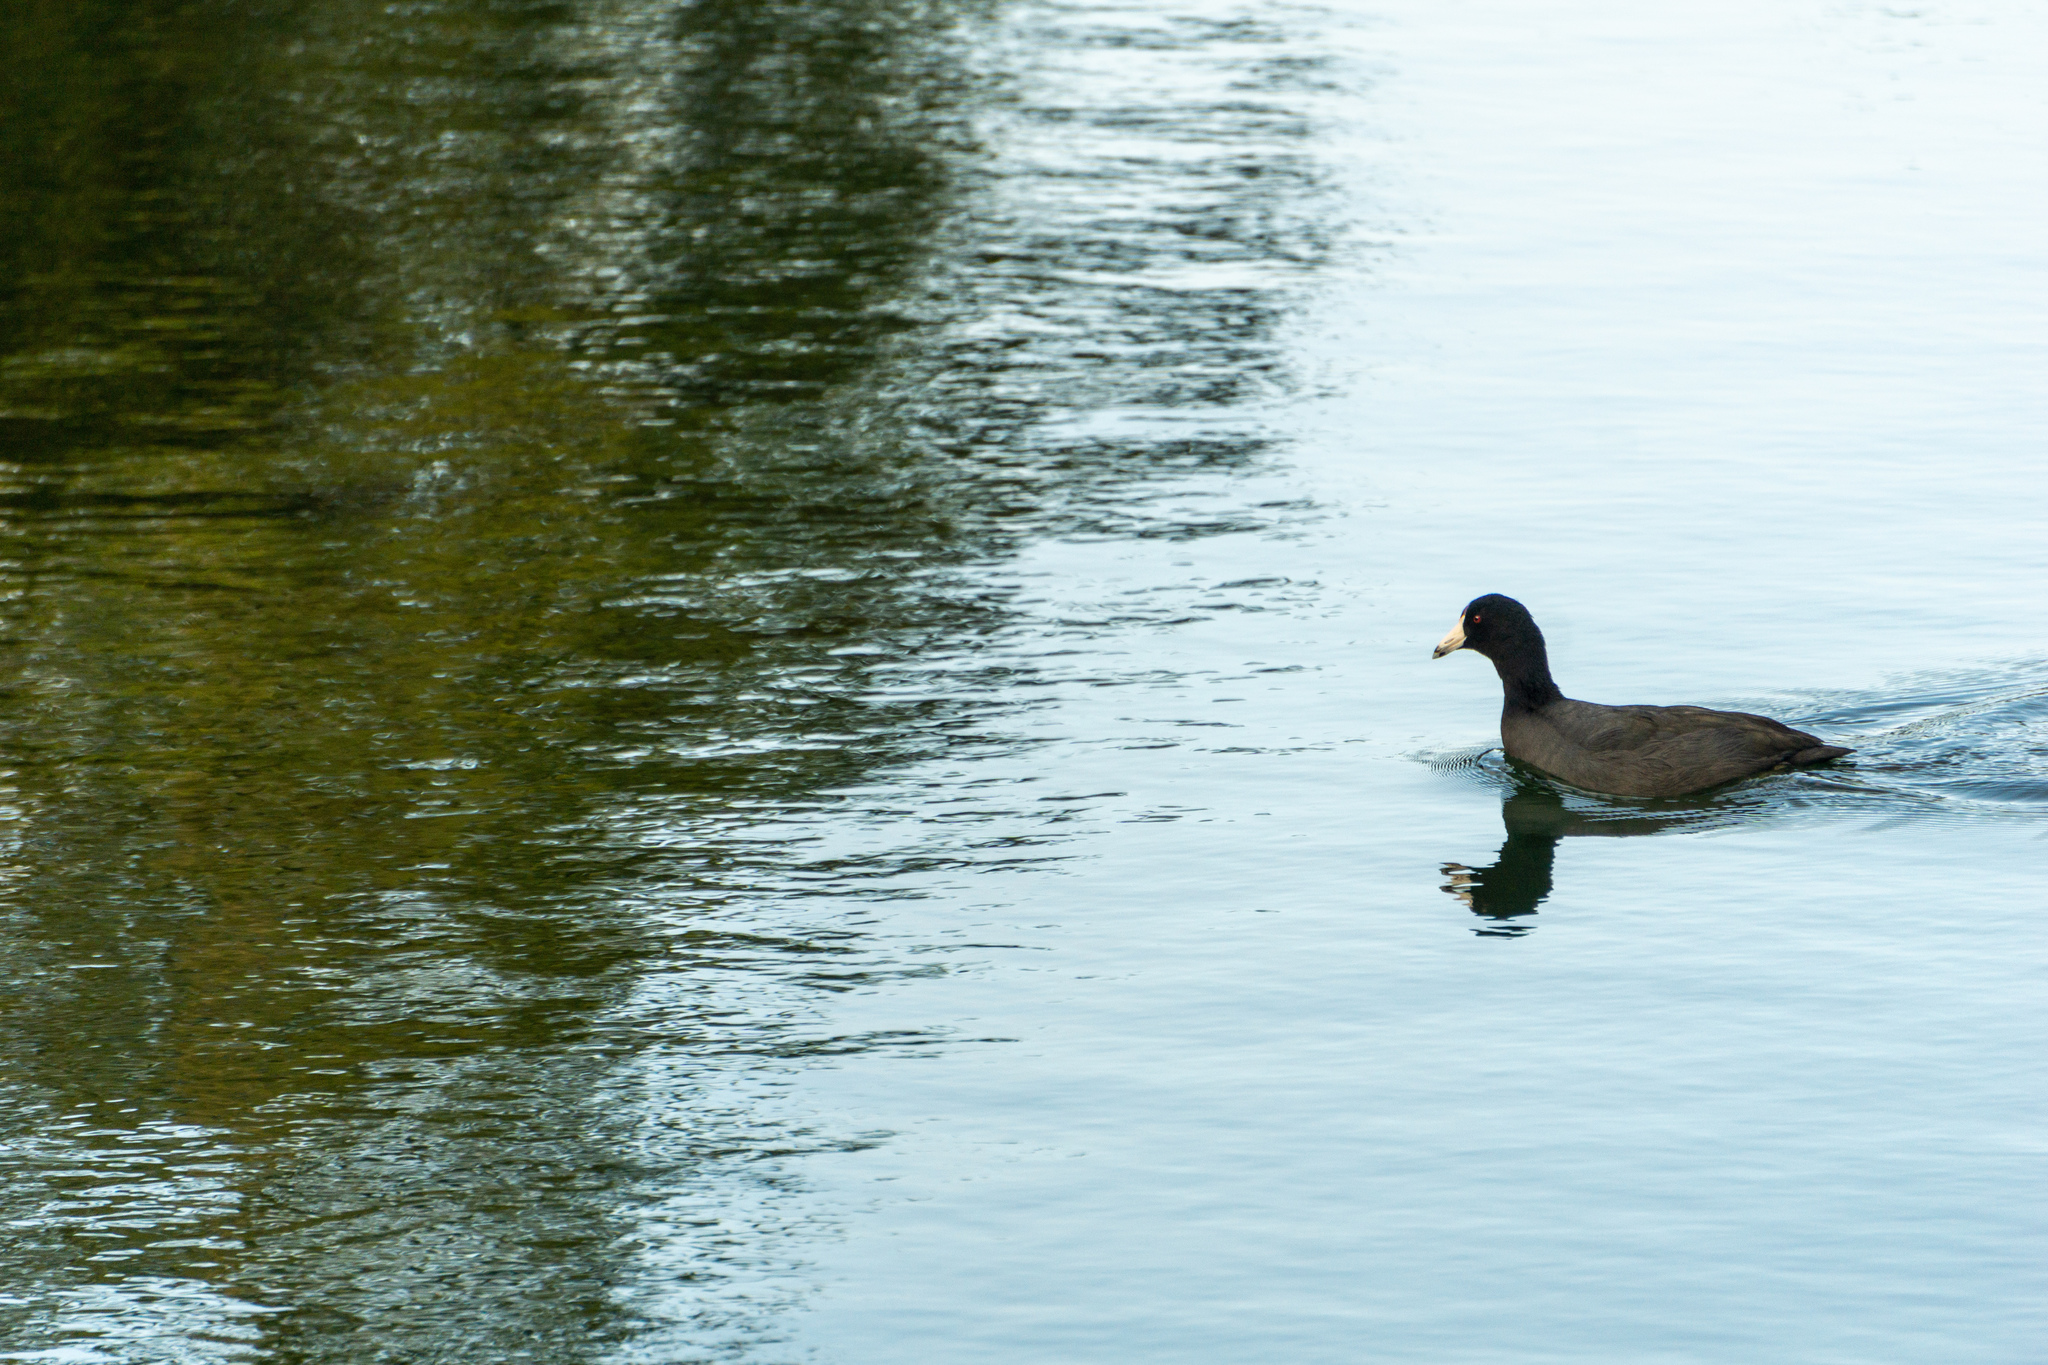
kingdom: Animalia
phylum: Chordata
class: Aves
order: Gruiformes
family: Rallidae
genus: Fulica
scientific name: Fulica americana
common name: American coot
